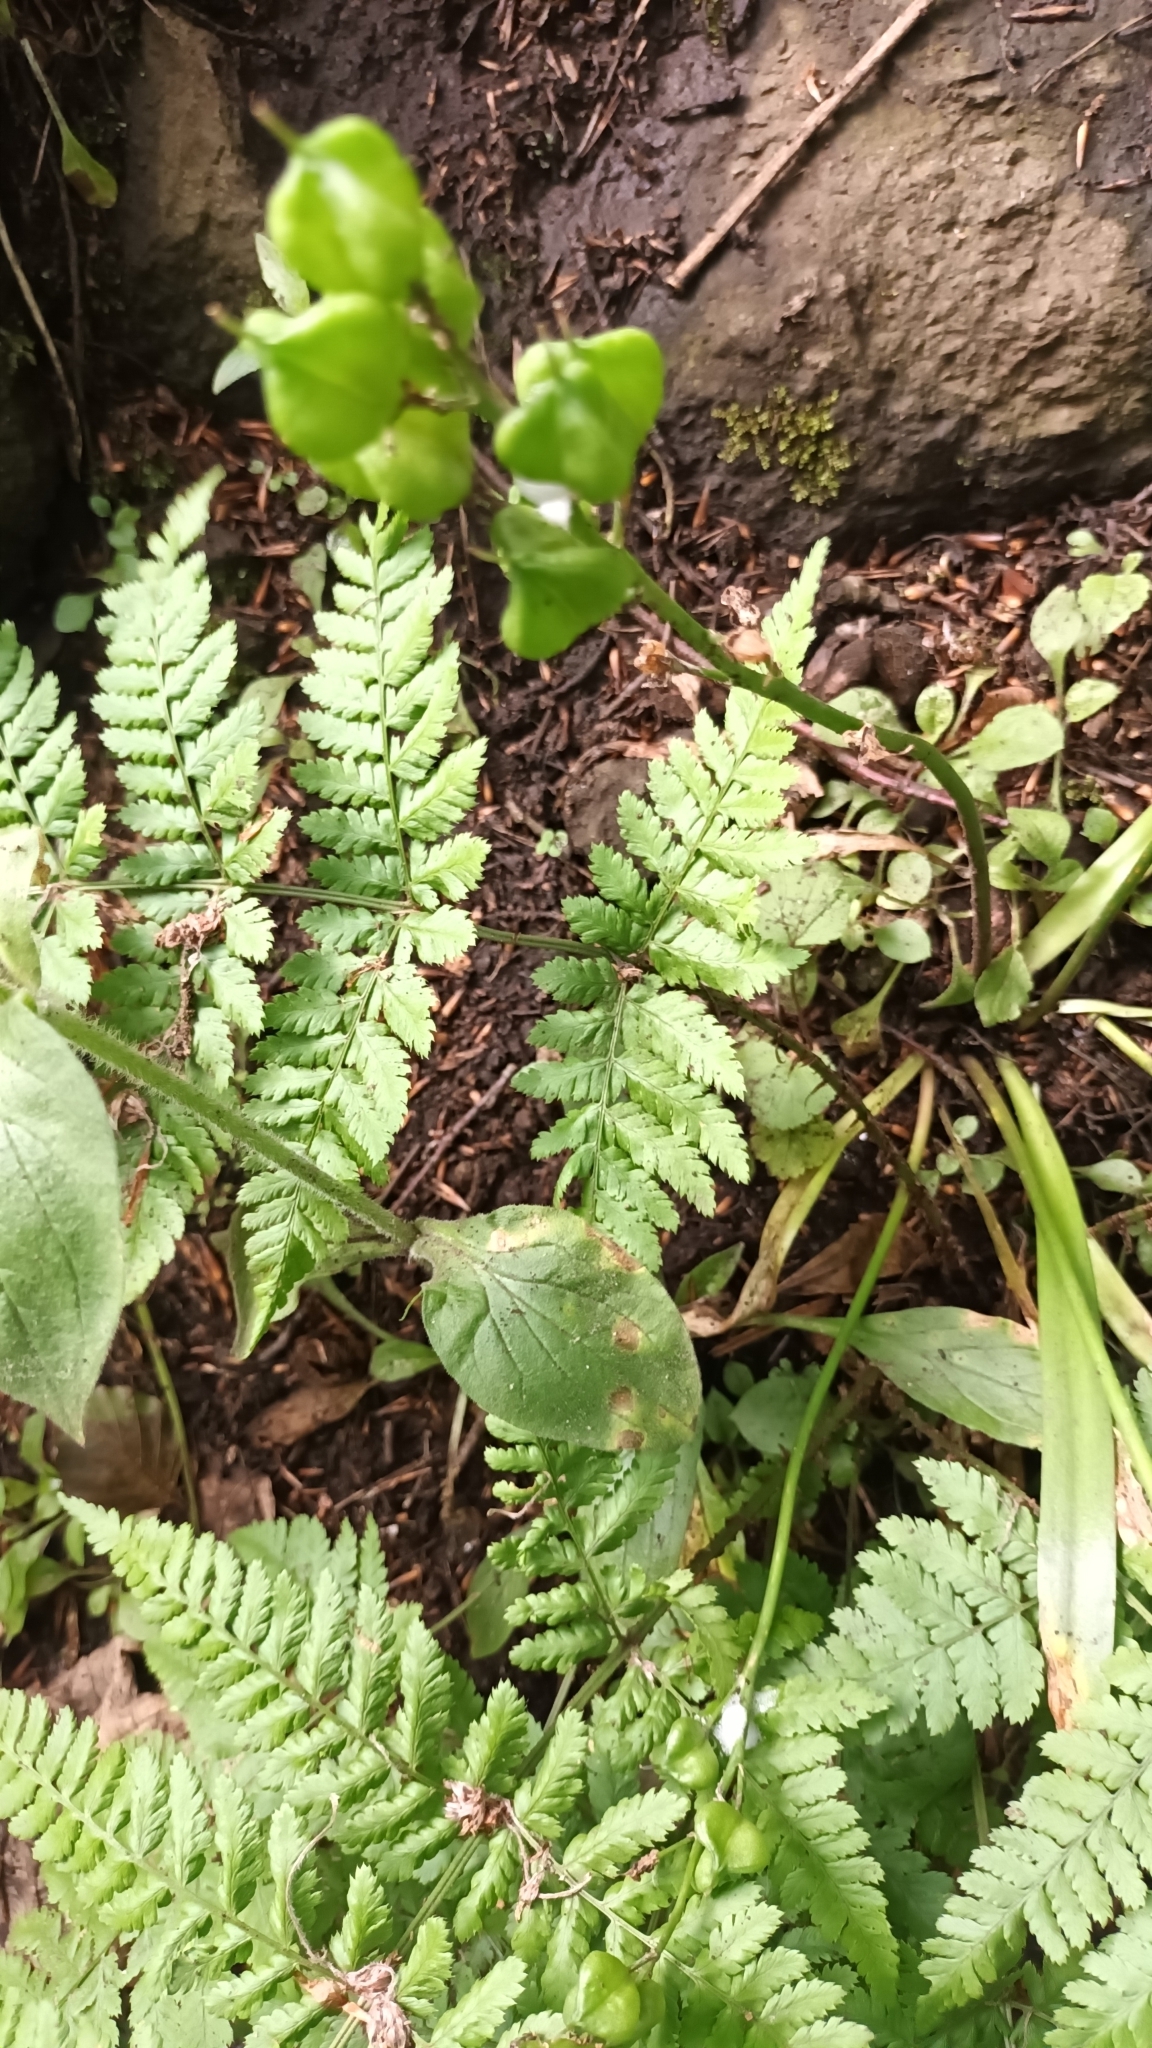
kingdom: Plantae
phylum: Tracheophyta
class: Liliopsida
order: Asparagales
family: Asparagaceae
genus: Hyacinthoides
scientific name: Hyacinthoides non-scripta
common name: Bluebell
